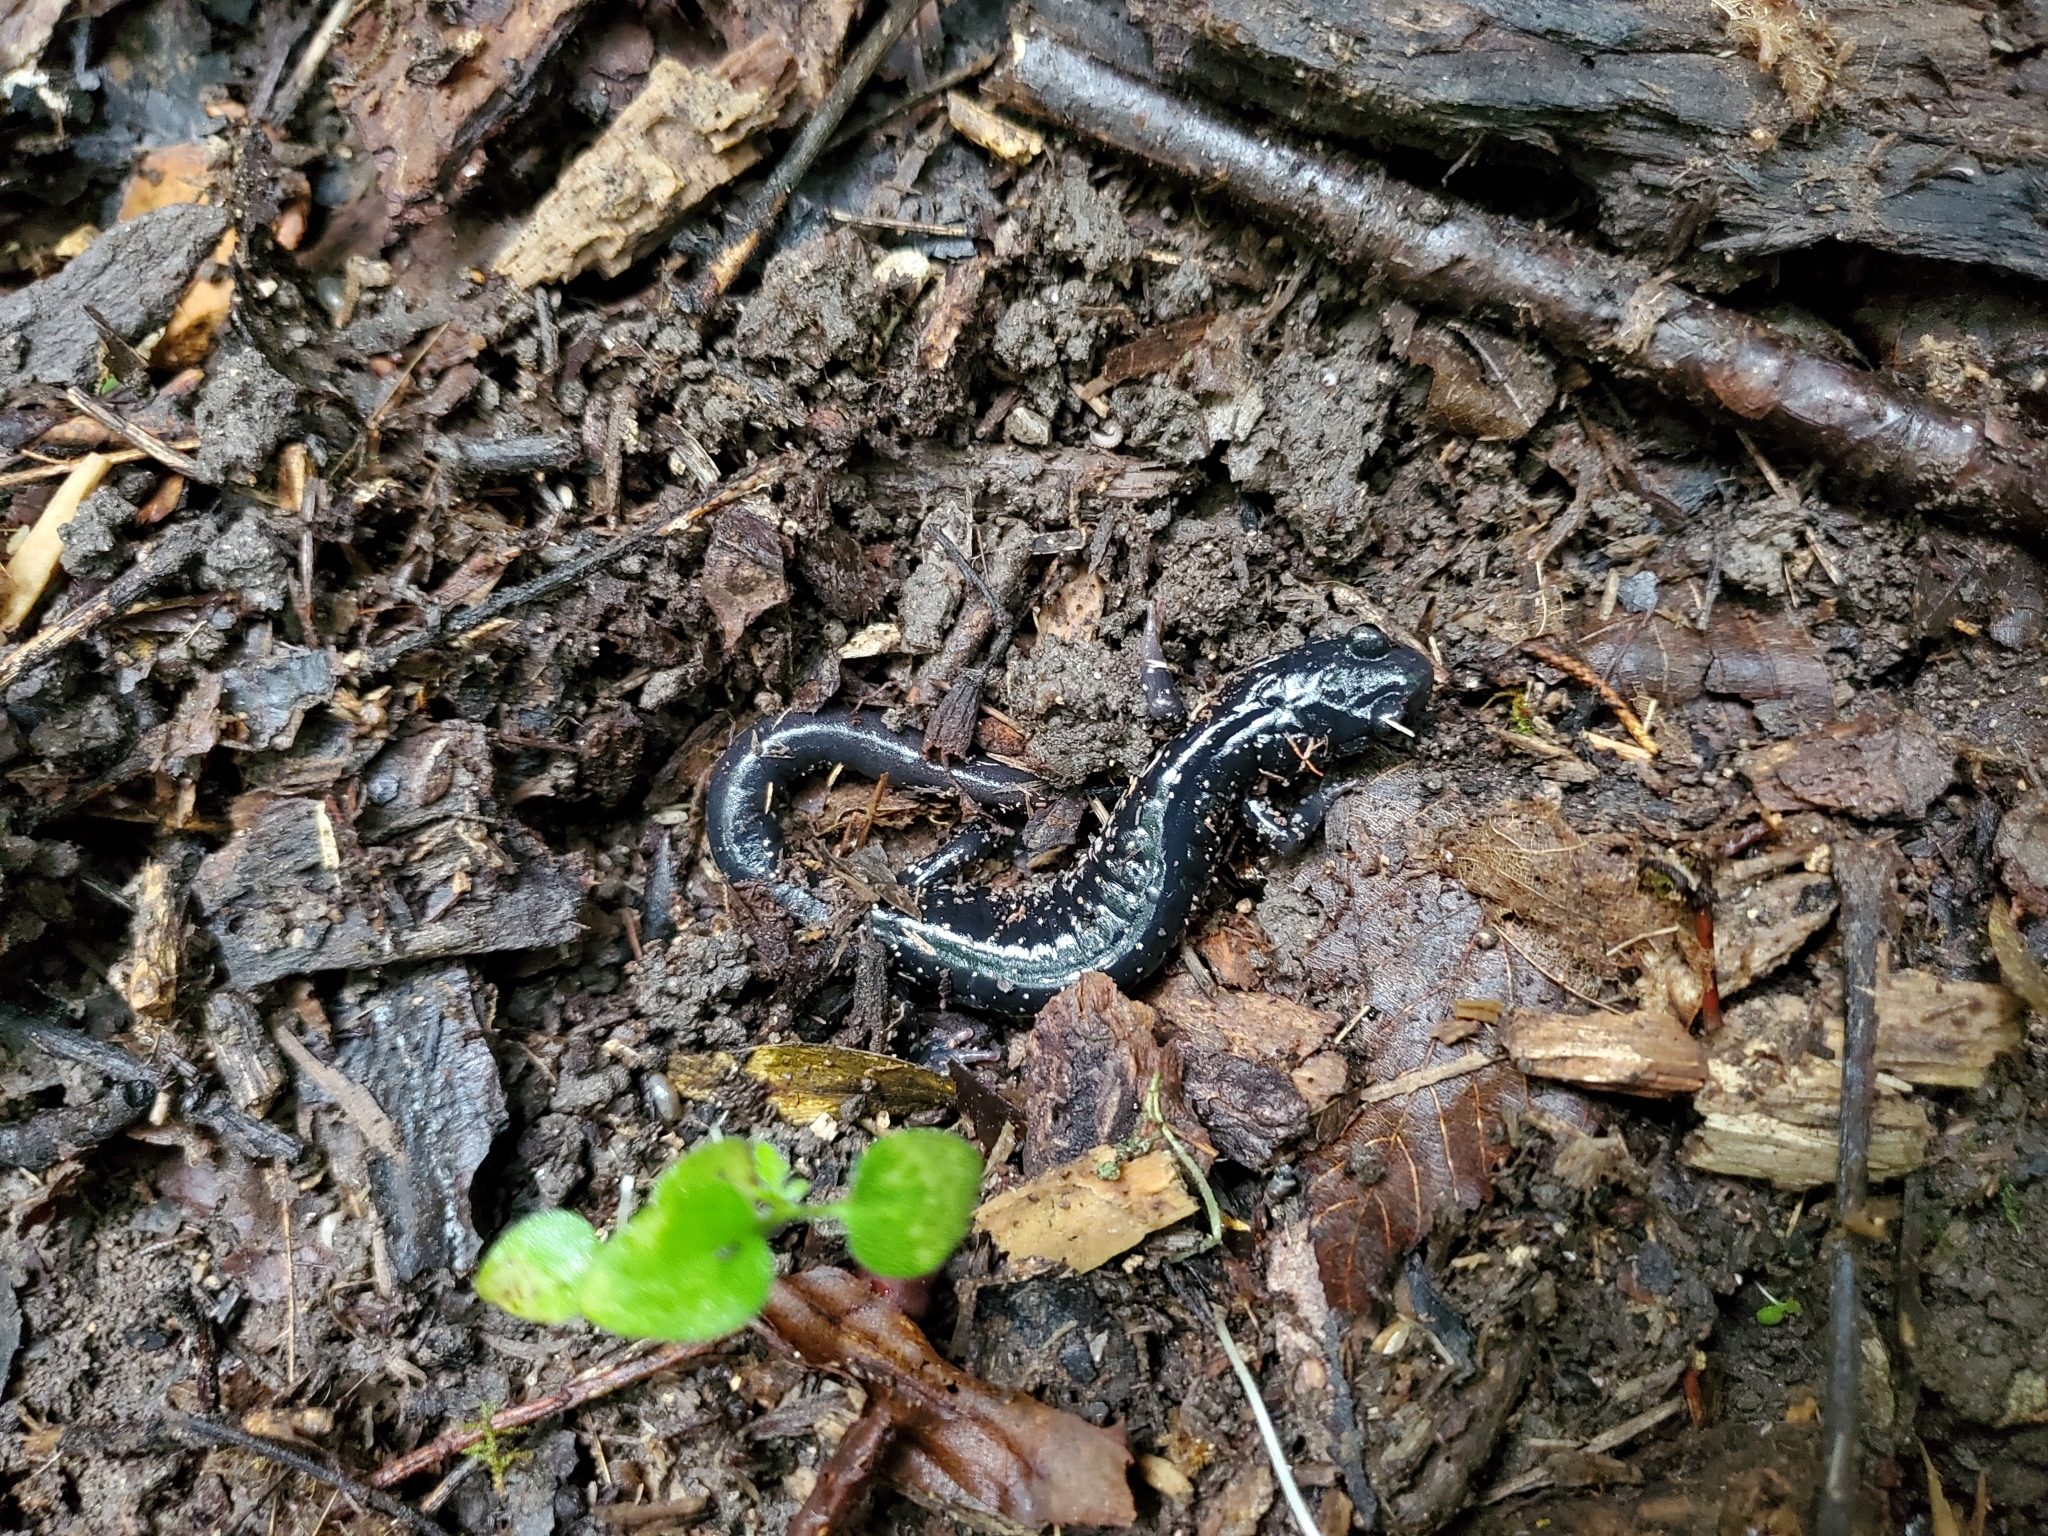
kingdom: Animalia
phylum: Chordata
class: Amphibia
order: Caudata
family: Plethodontidae
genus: Plethodon
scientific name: Plethodon glutinosus
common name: Northern slimy salamander
